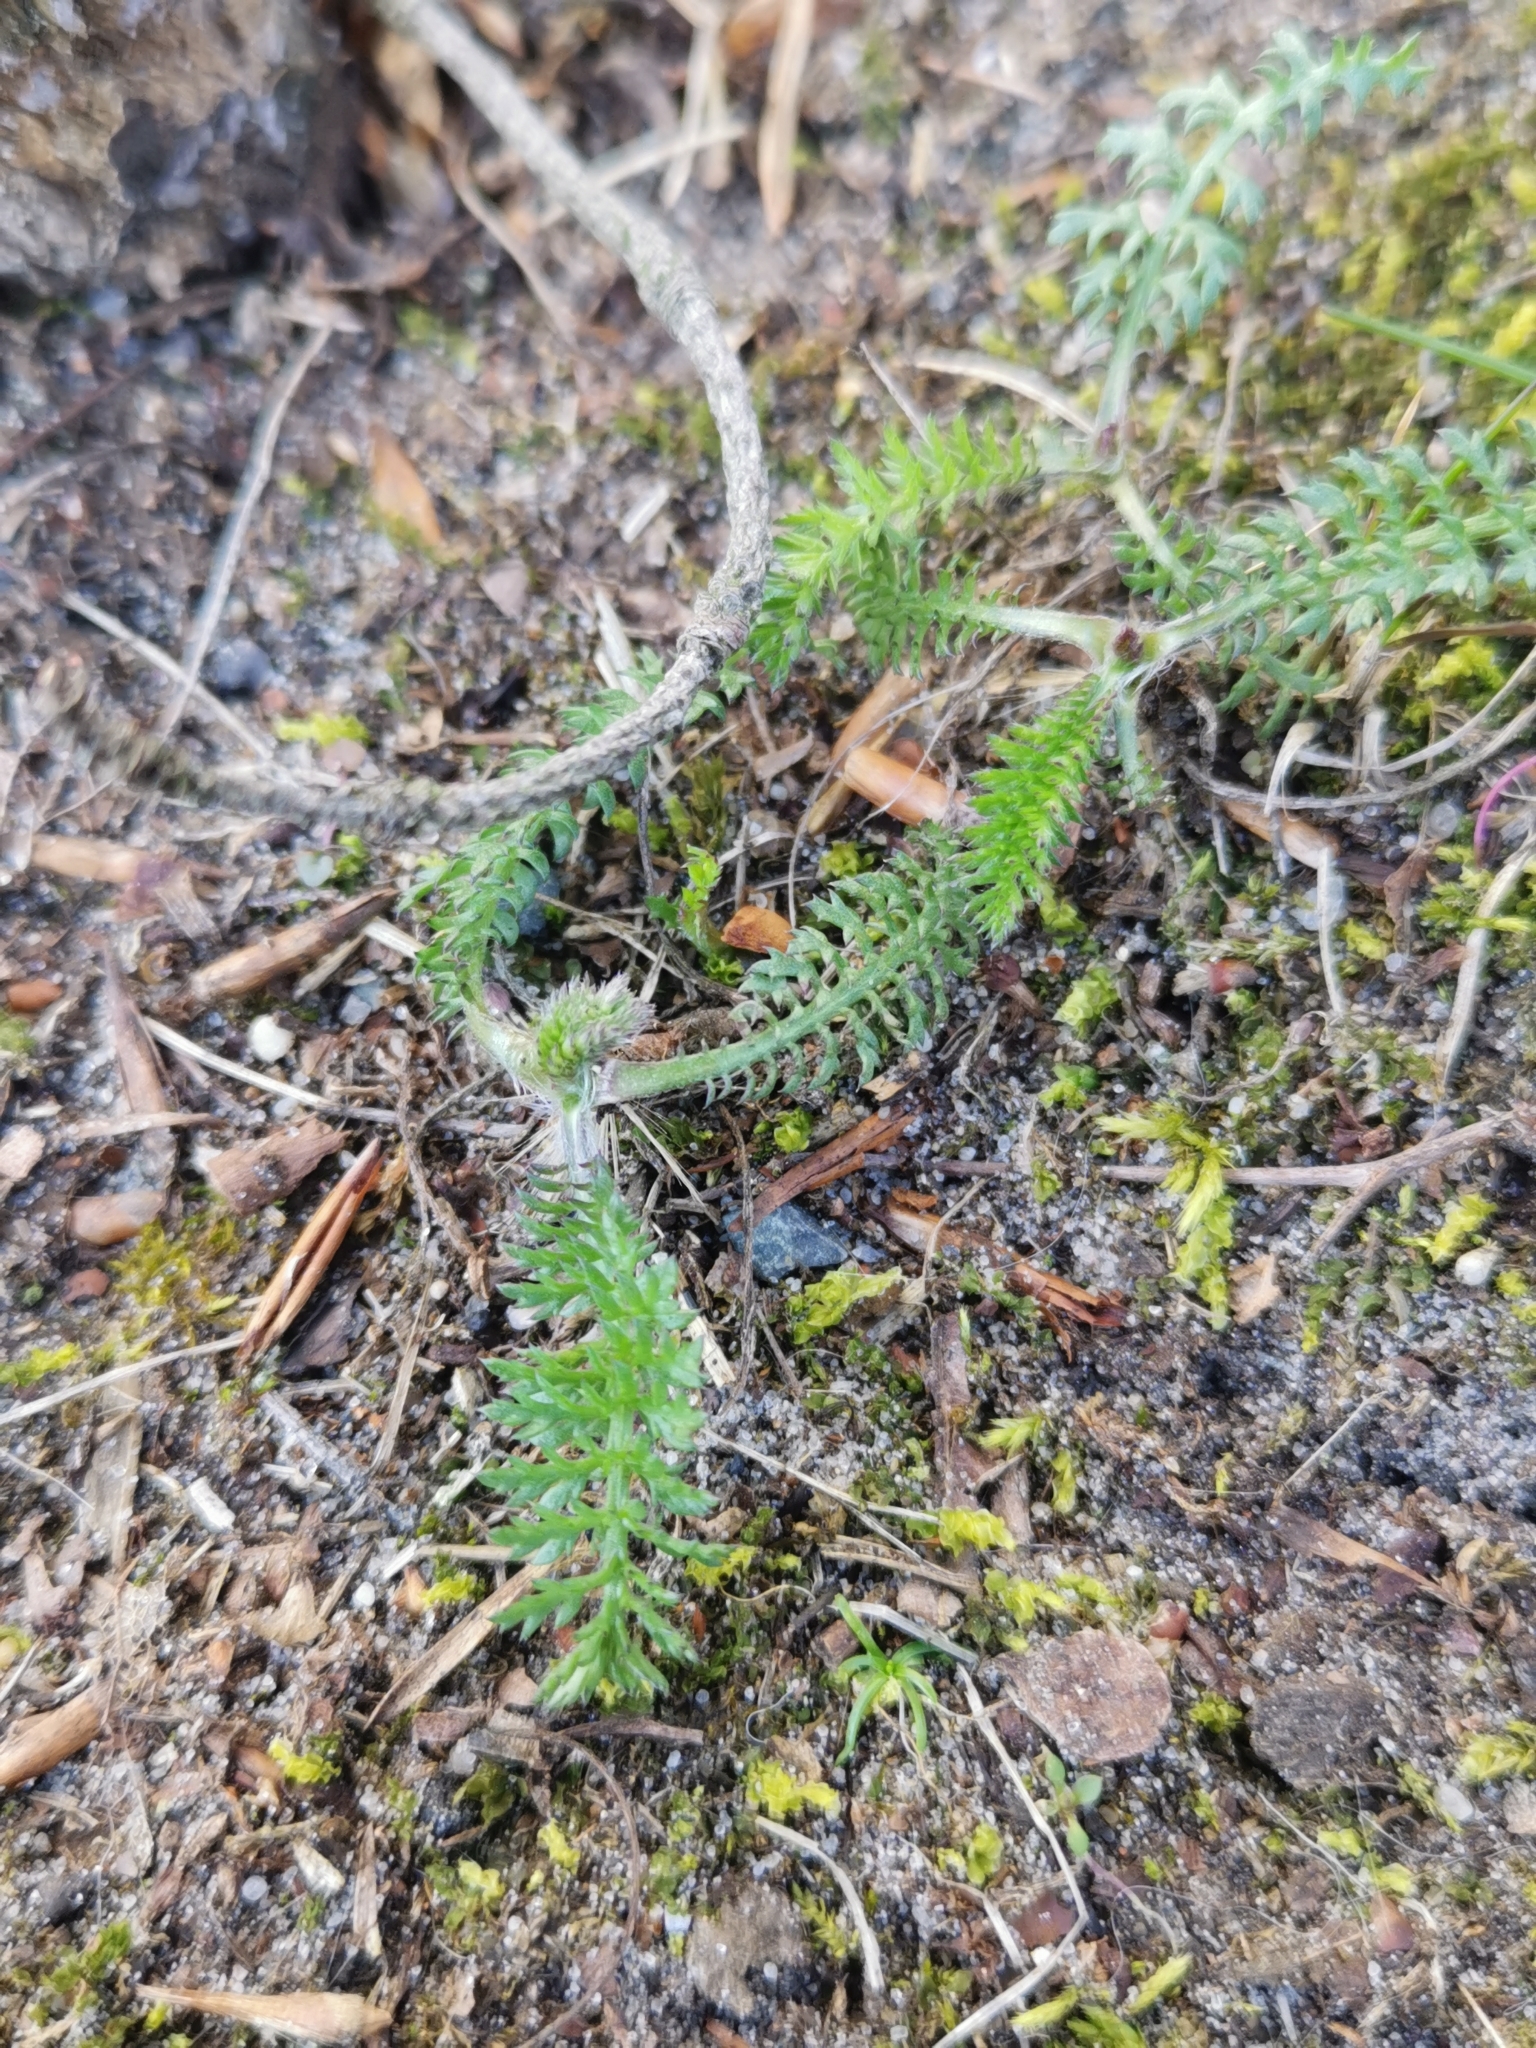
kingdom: Plantae
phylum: Tracheophyta
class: Magnoliopsida
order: Asterales
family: Asteraceae
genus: Achillea
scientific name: Achillea millefolium
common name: Yarrow
